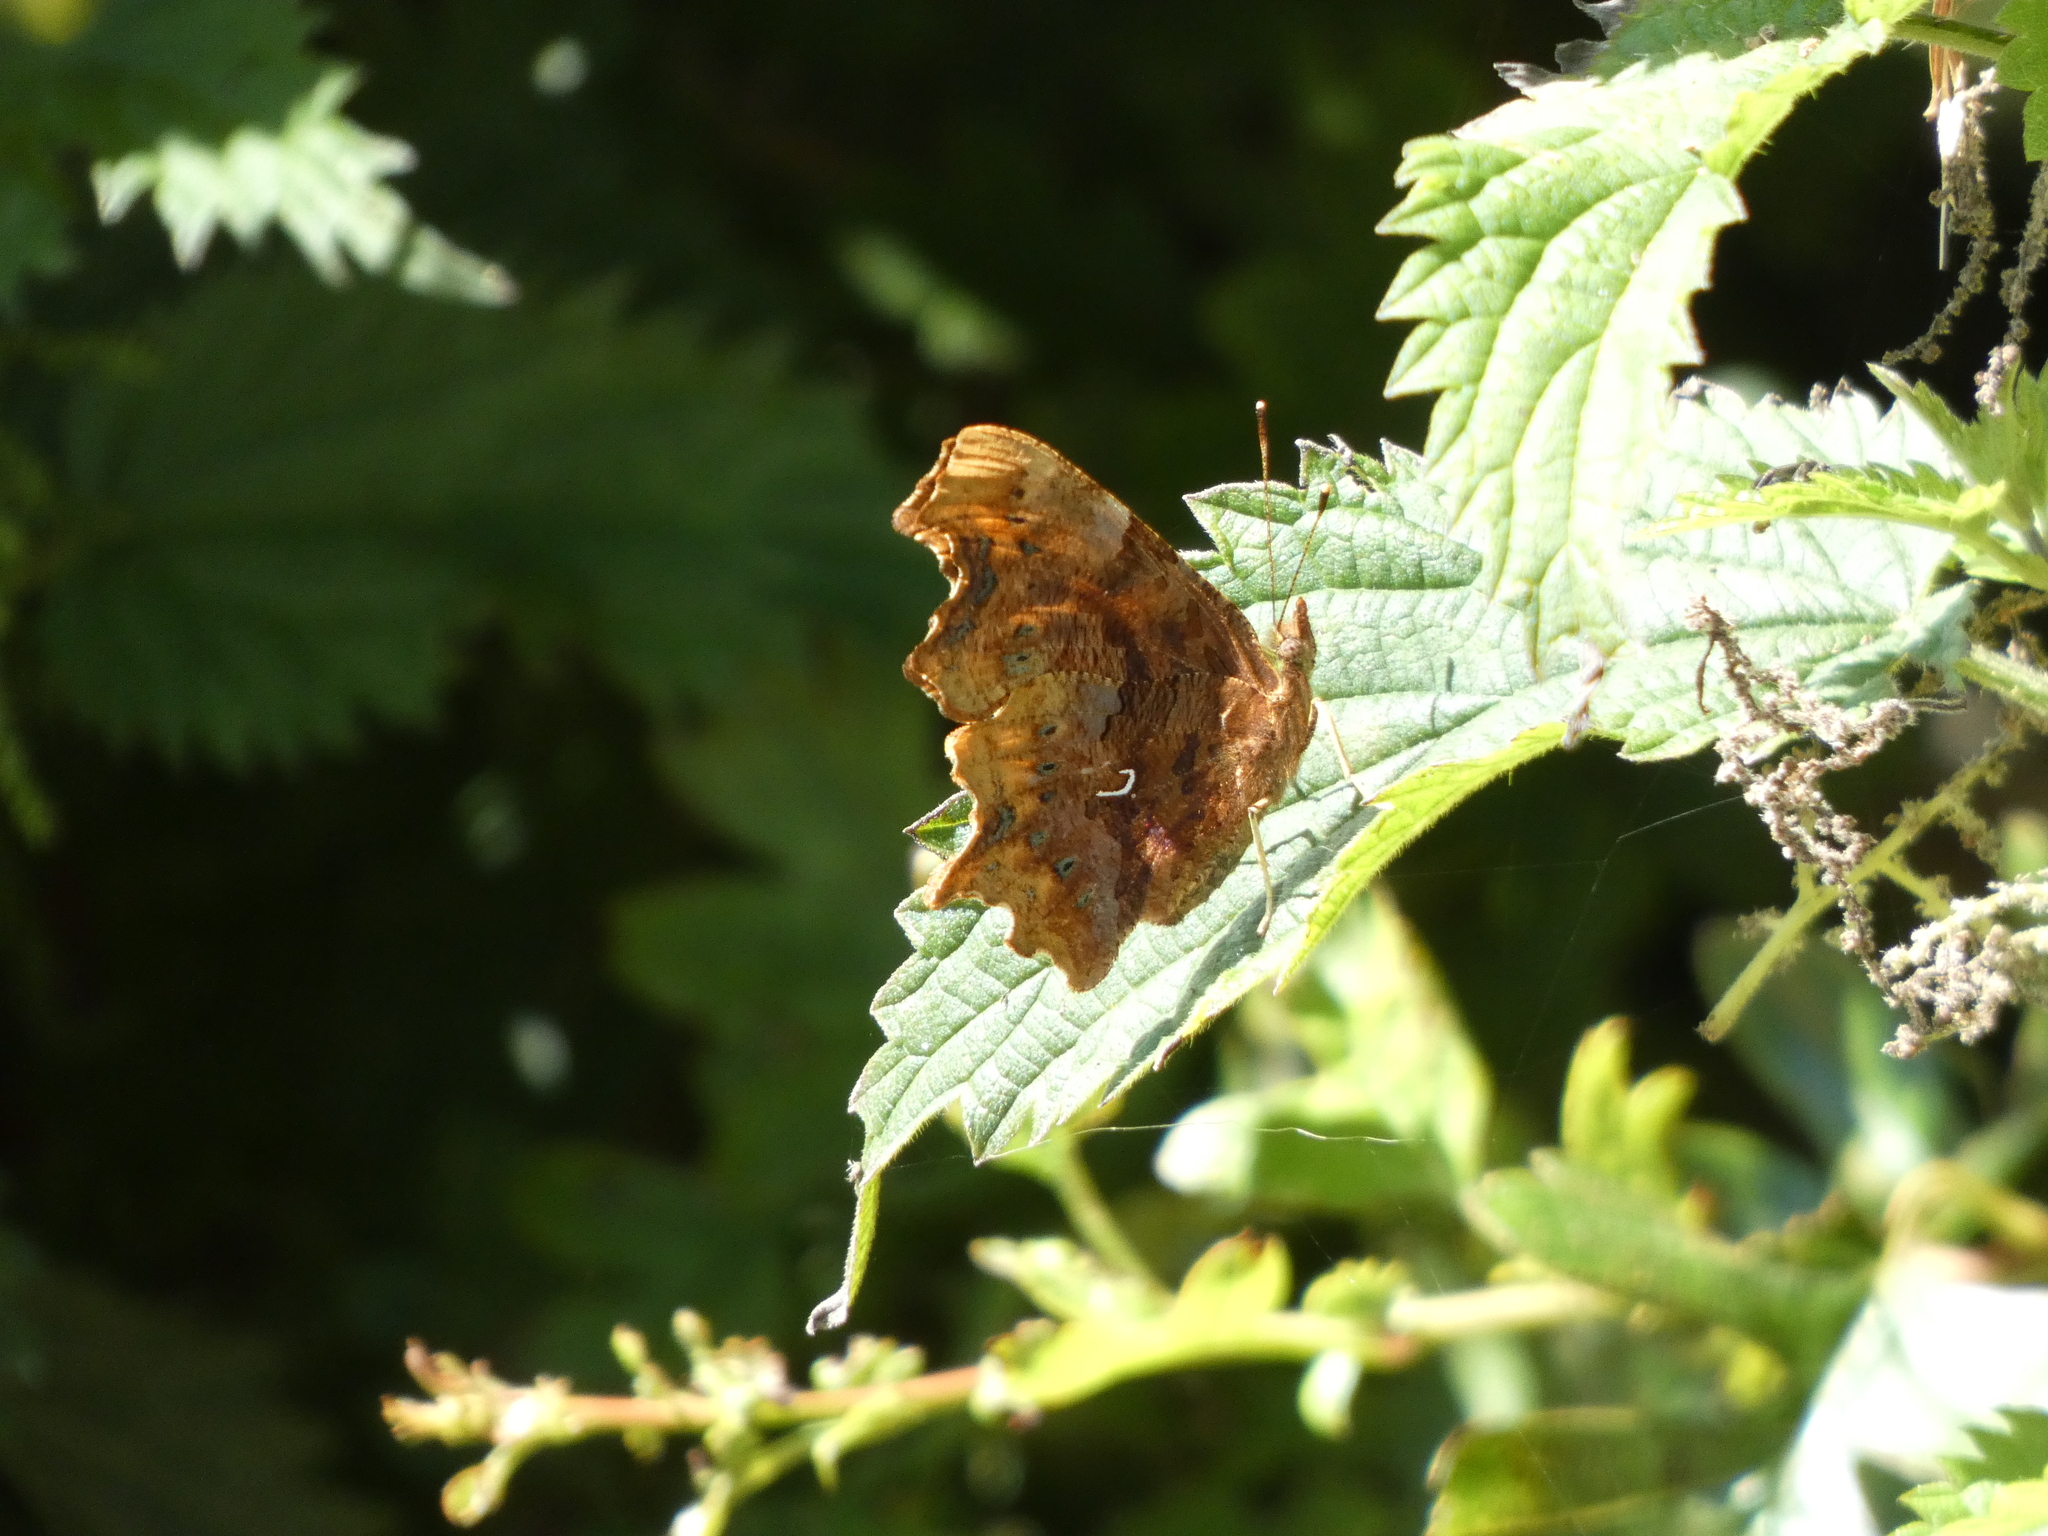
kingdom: Animalia
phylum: Arthropoda
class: Insecta
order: Lepidoptera
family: Nymphalidae
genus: Polygonia
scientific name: Polygonia c-album
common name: Comma
